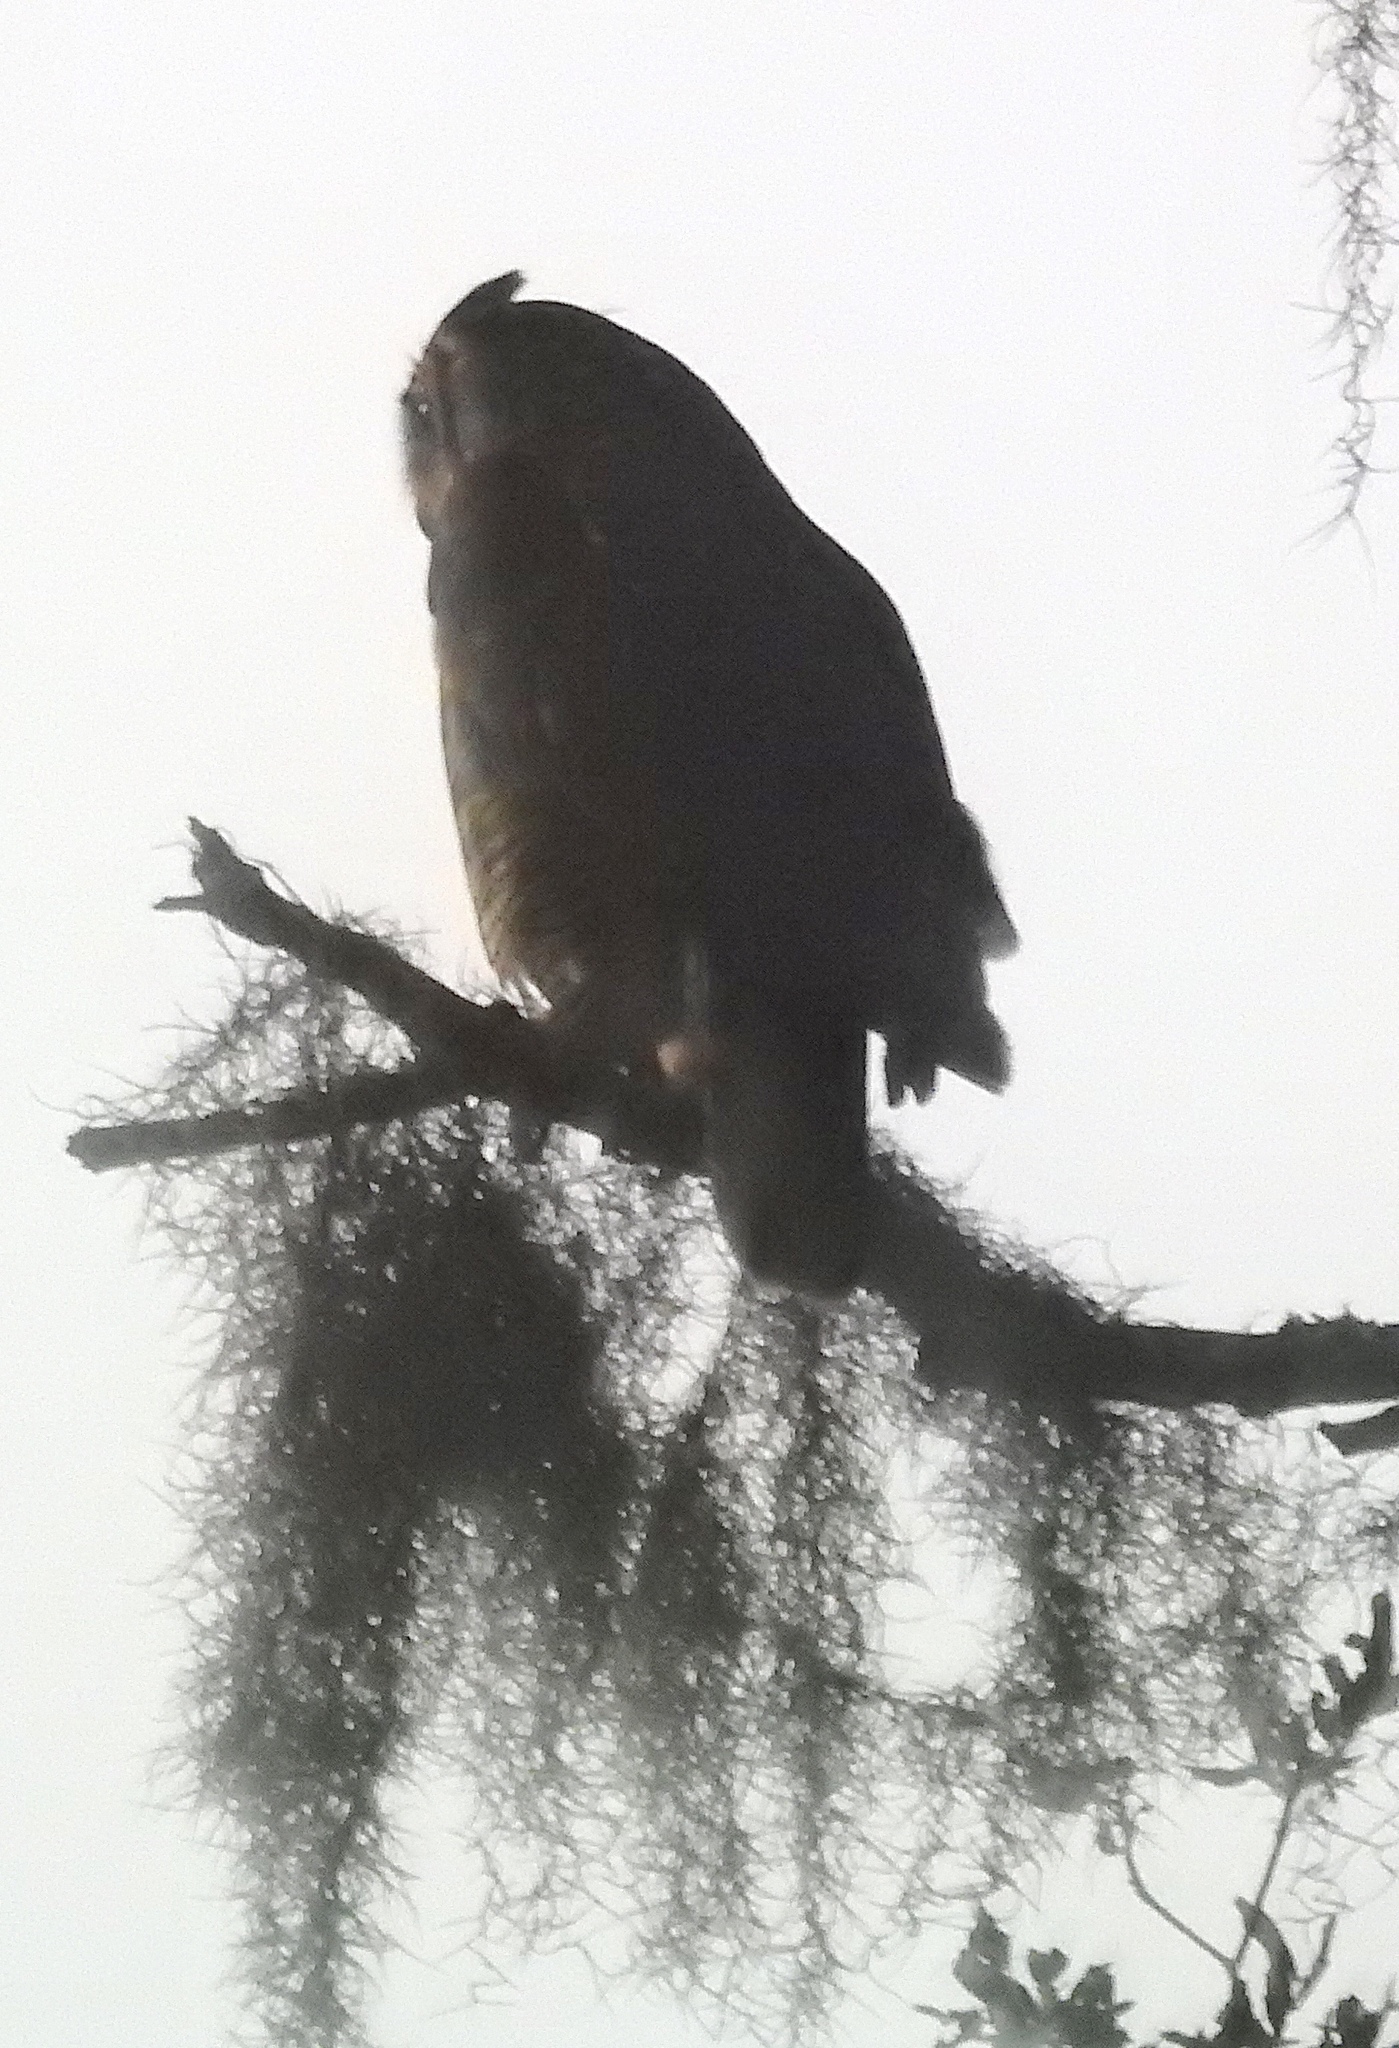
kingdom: Animalia
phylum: Chordata
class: Aves
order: Strigiformes
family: Strigidae
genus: Bubo
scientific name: Bubo virginianus
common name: Great horned owl
